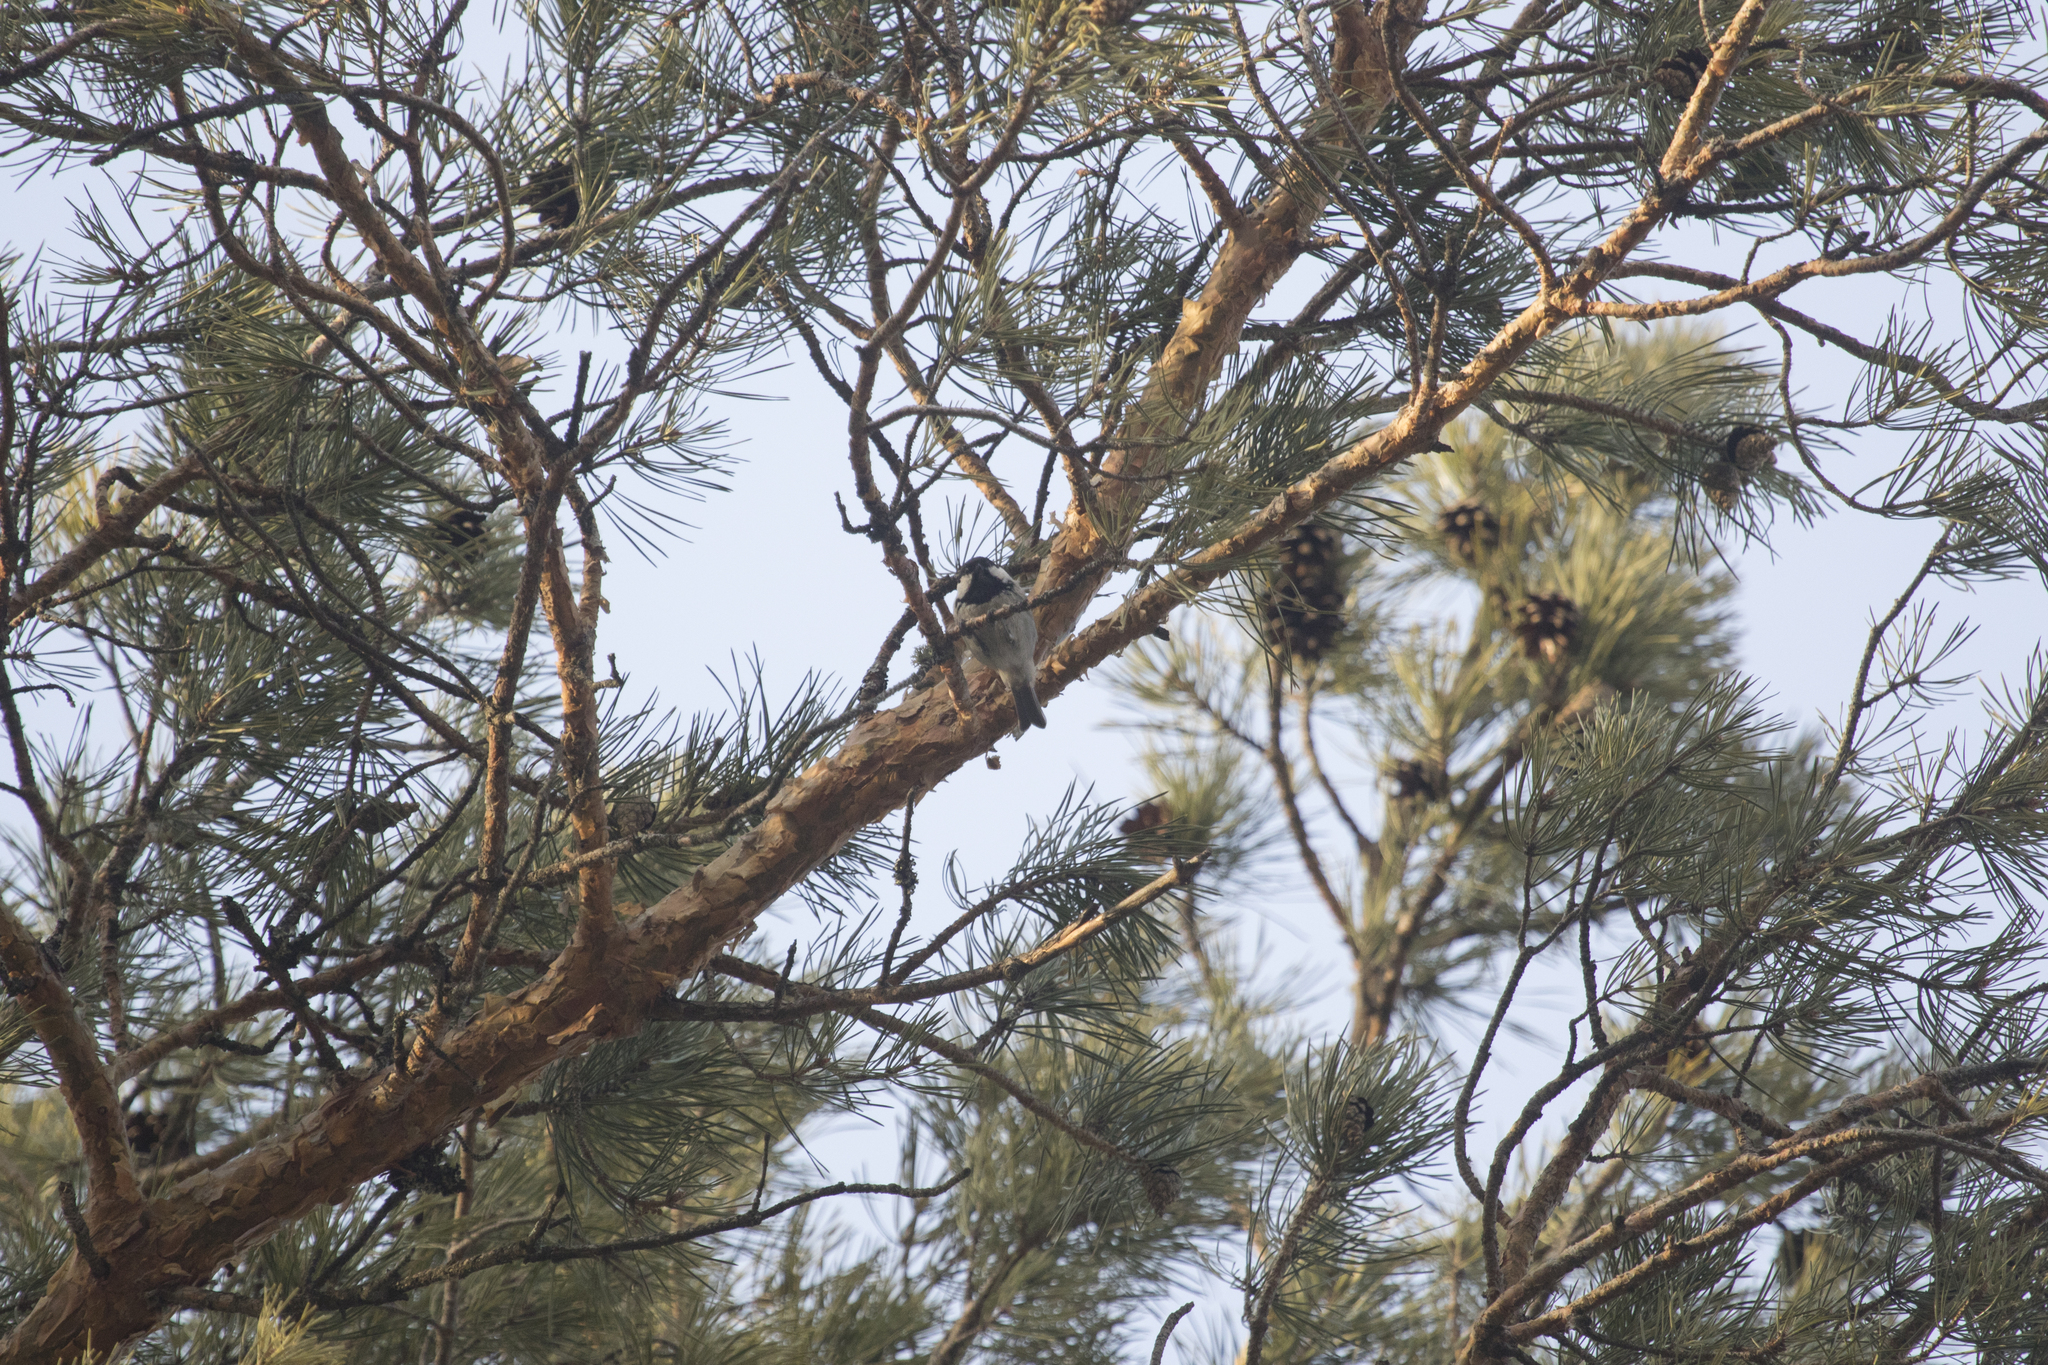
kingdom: Animalia
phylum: Chordata
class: Aves
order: Passeriformes
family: Paridae
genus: Periparus
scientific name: Periparus ater
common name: Coal tit
